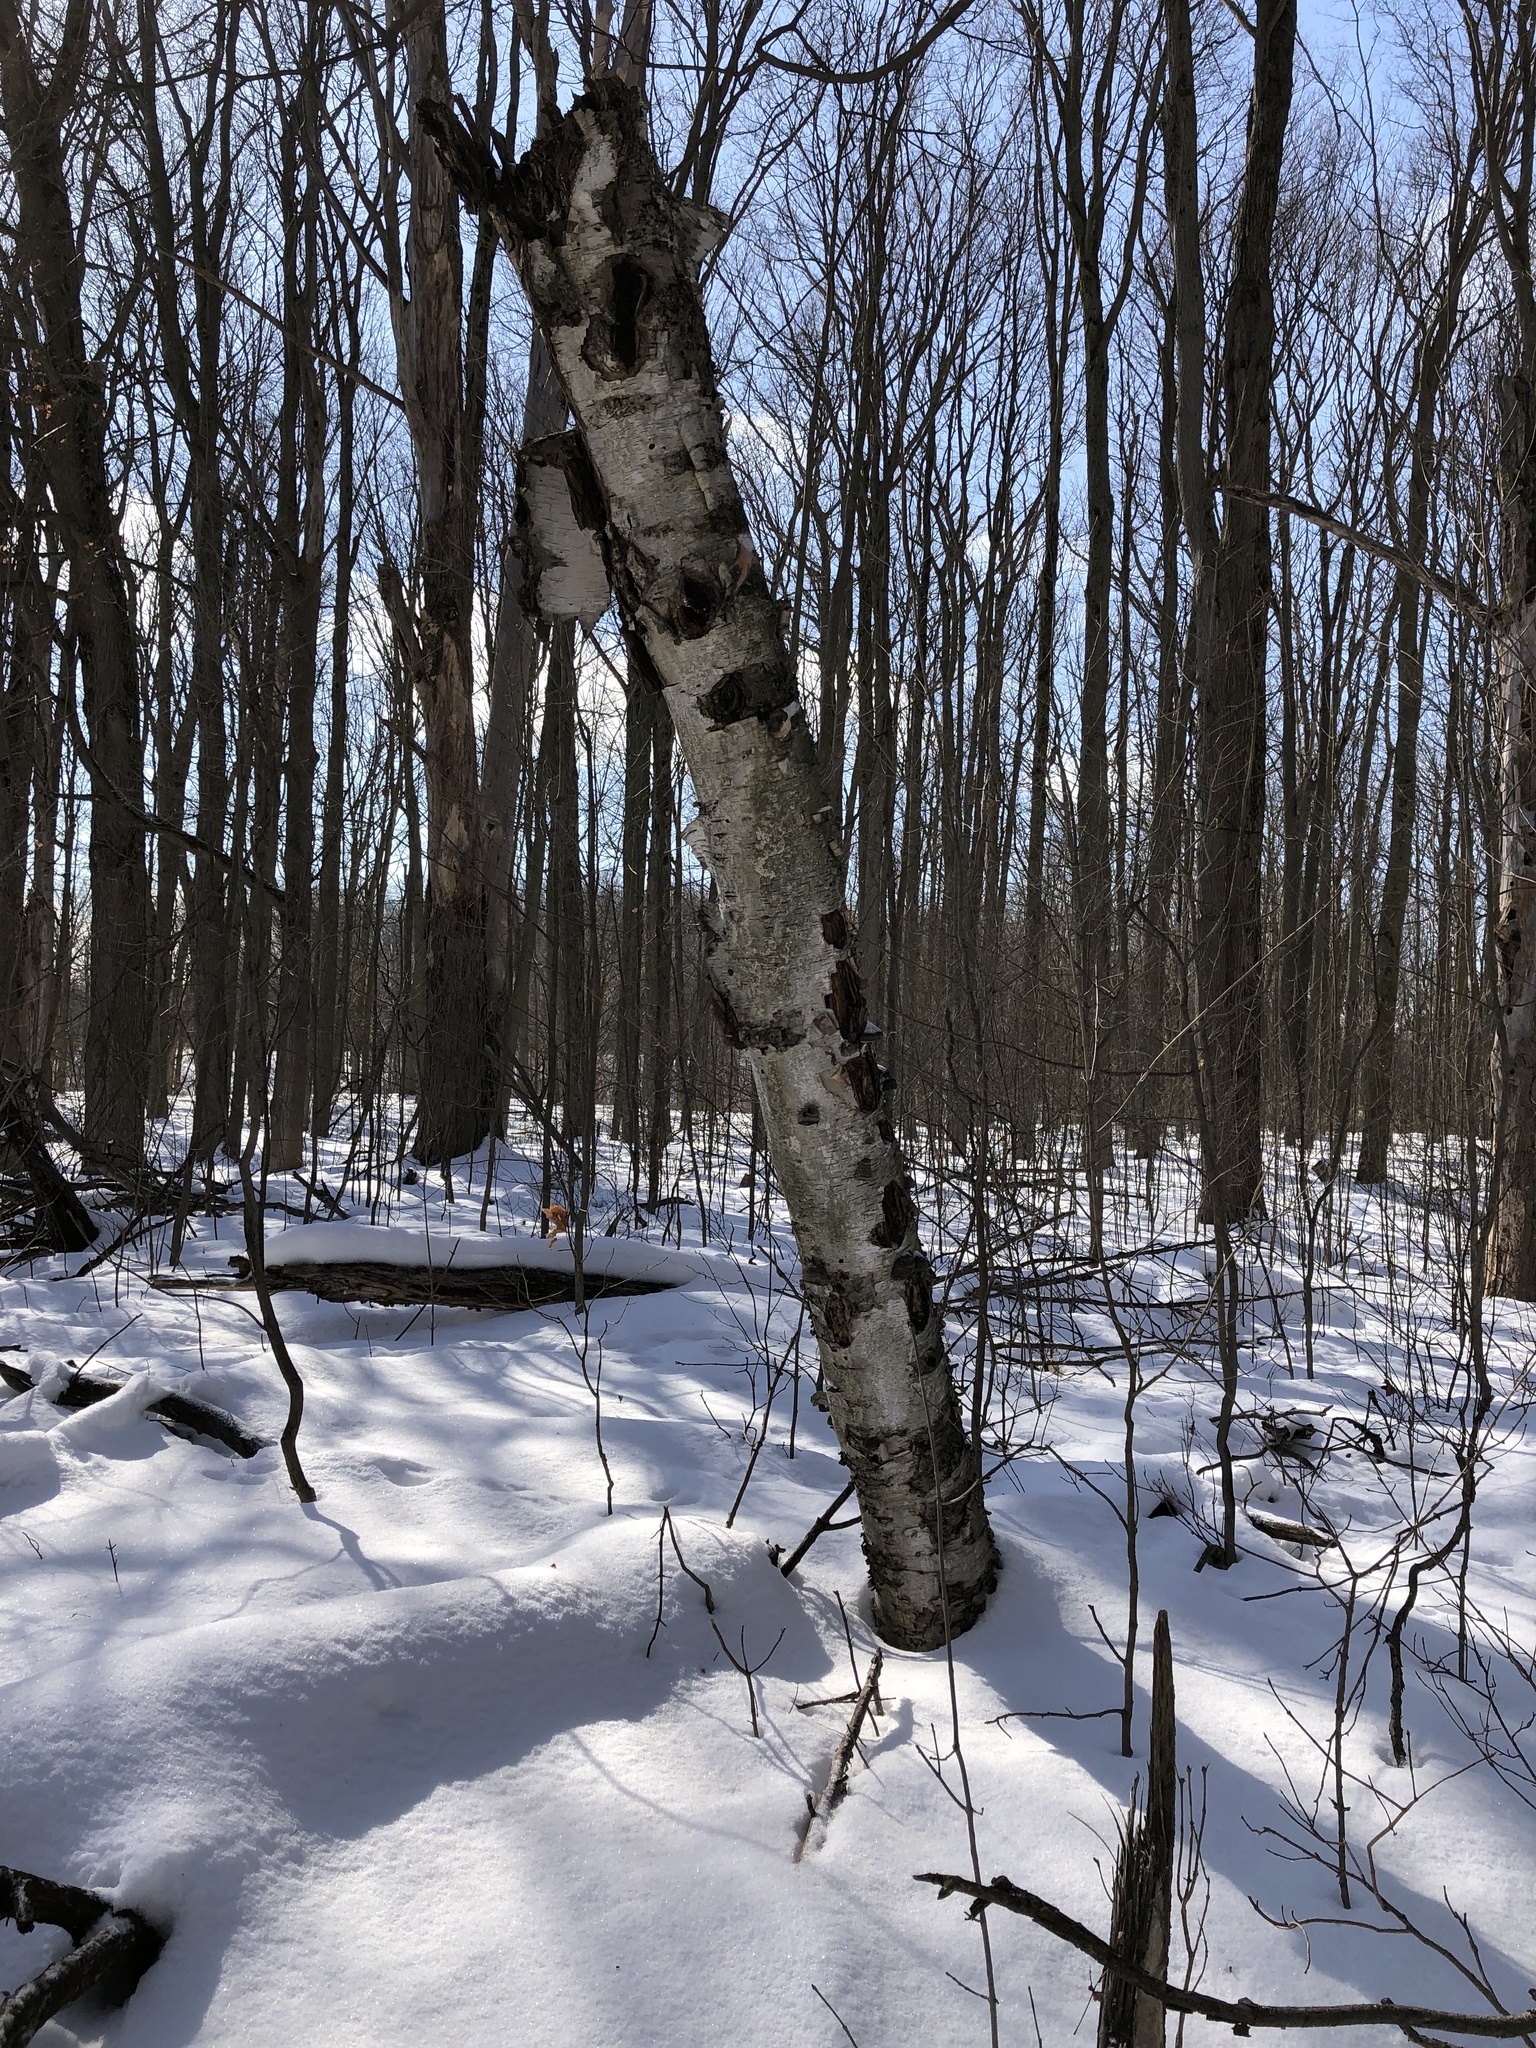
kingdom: Plantae
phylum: Tracheophyta
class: Magnoliopsida
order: Fagales
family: Betulaceae
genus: Betula
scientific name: Betula papyrifera
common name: Paper birch
